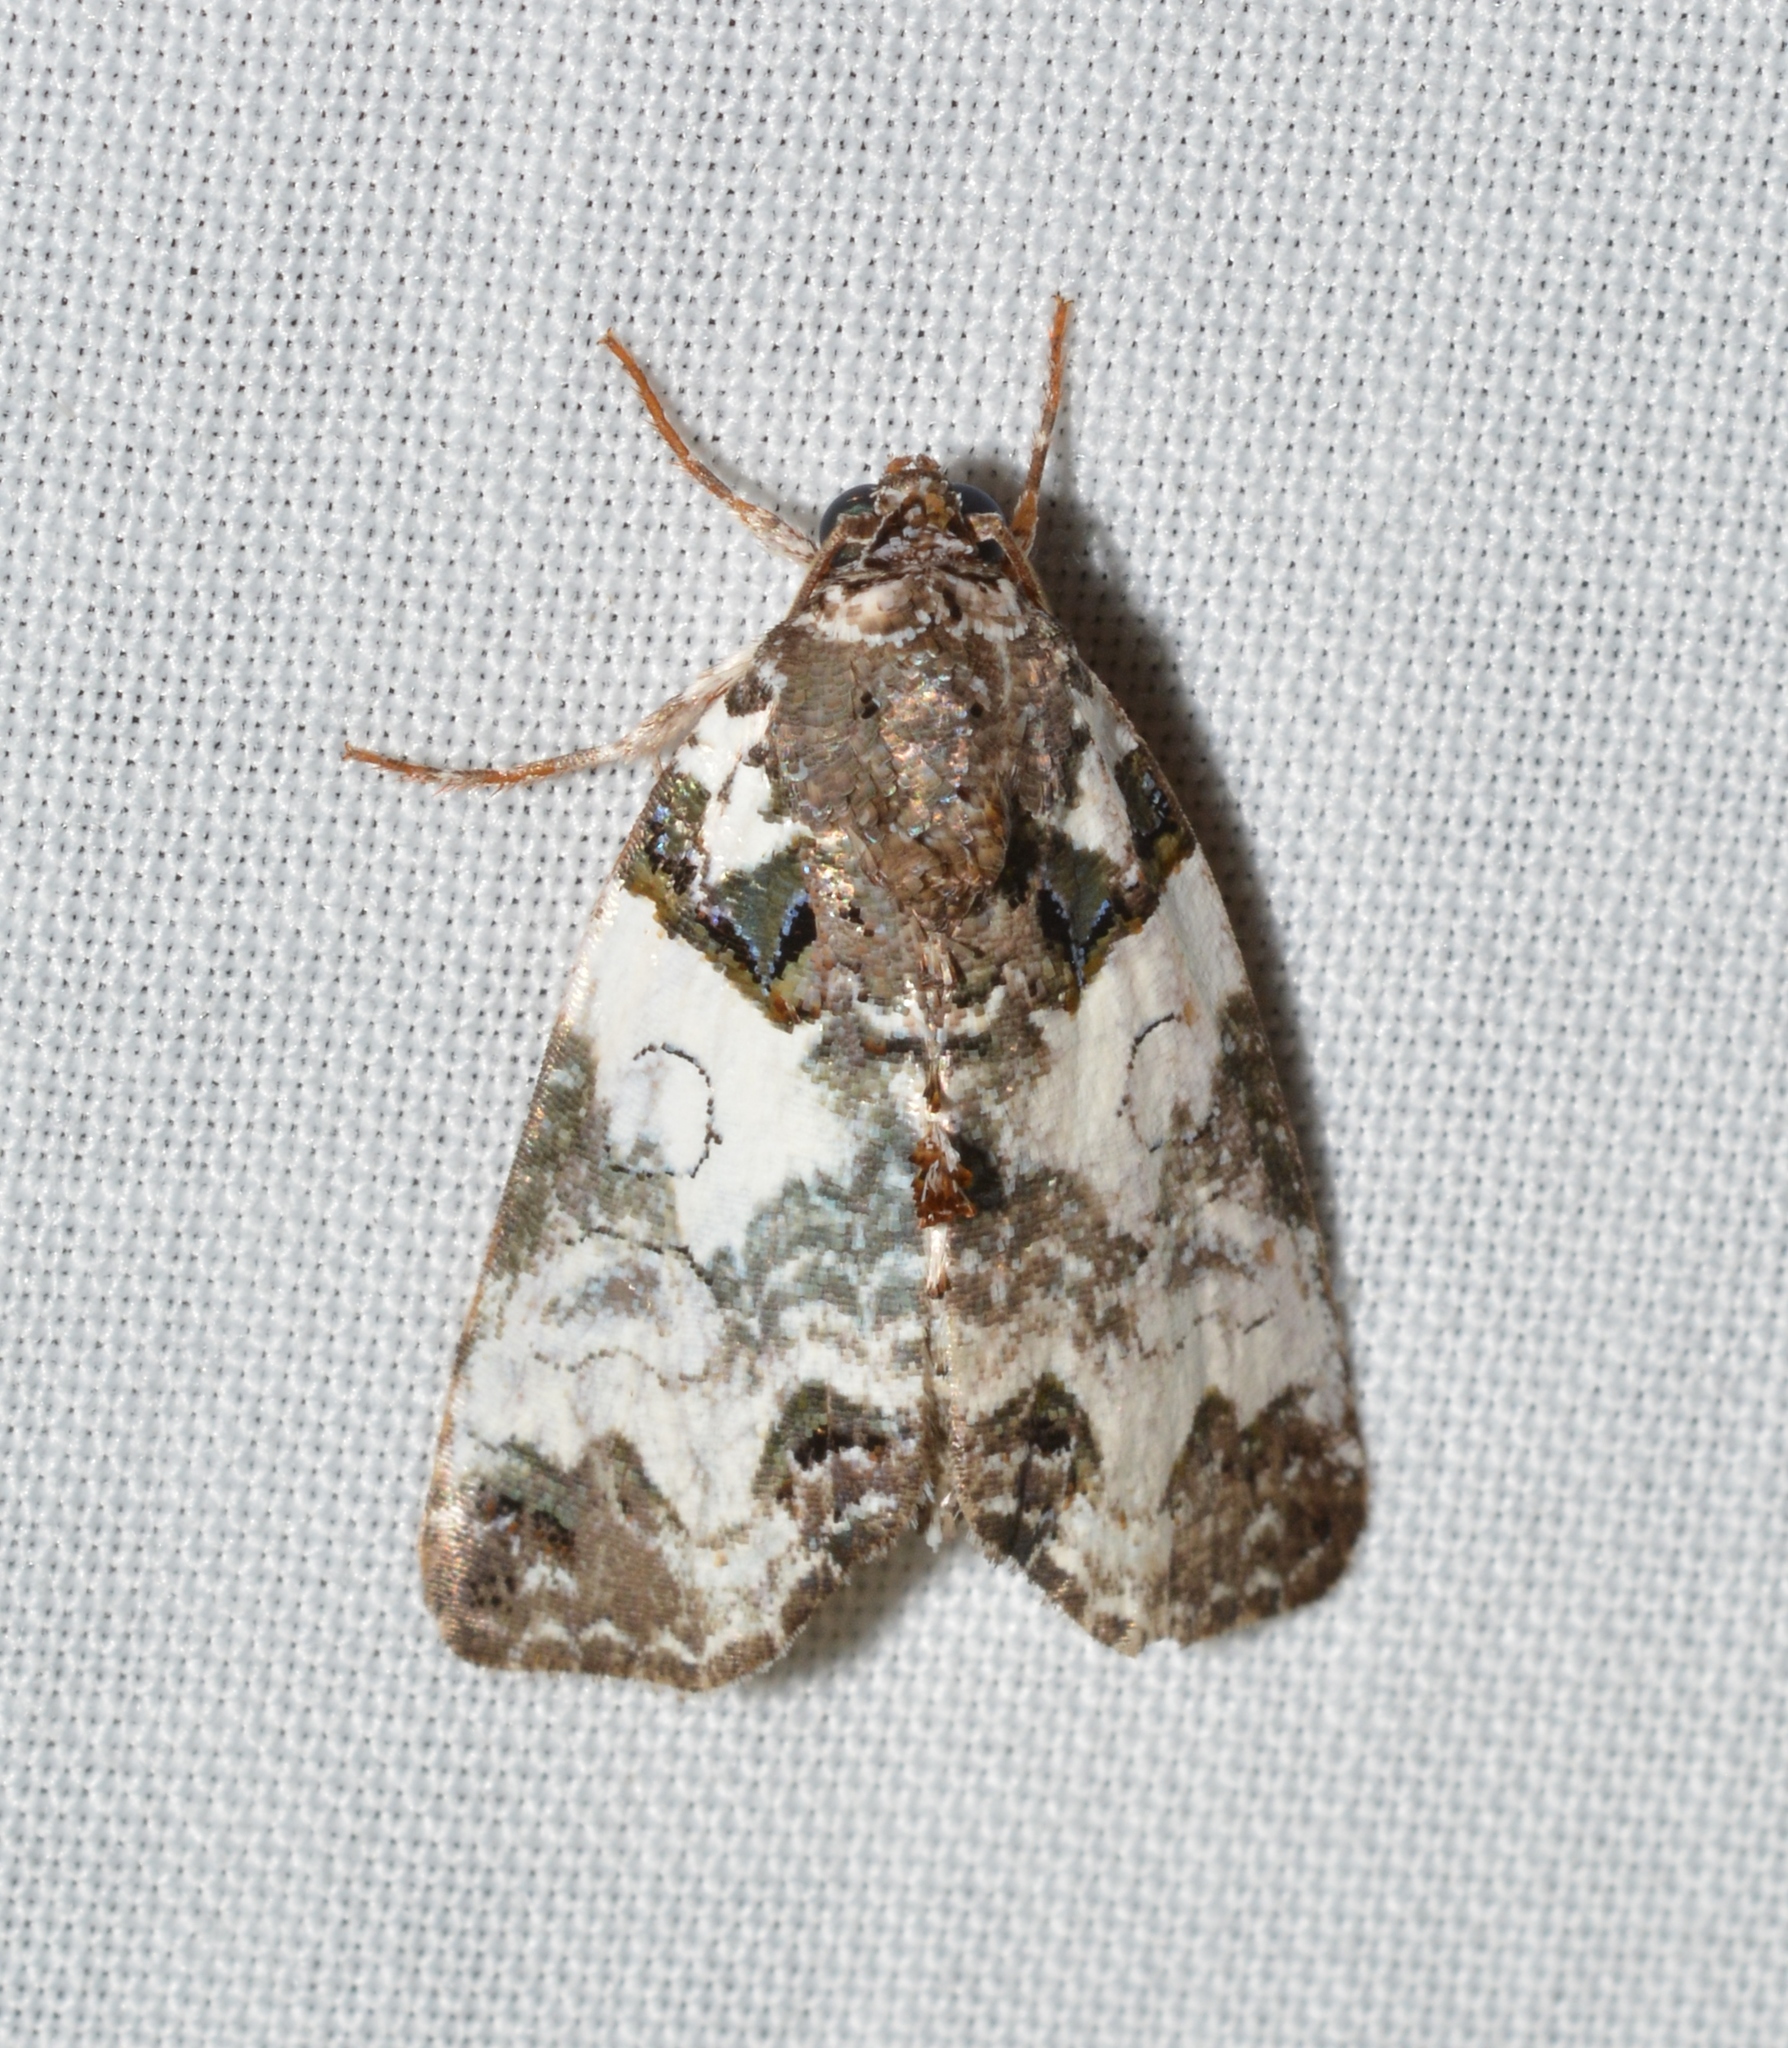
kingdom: Animalia
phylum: Arthropoda
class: Insecta
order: Lepidoptera
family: Noctuidae
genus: Cerma
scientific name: Cerma cerintha
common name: Tufted bird-dropping moth
